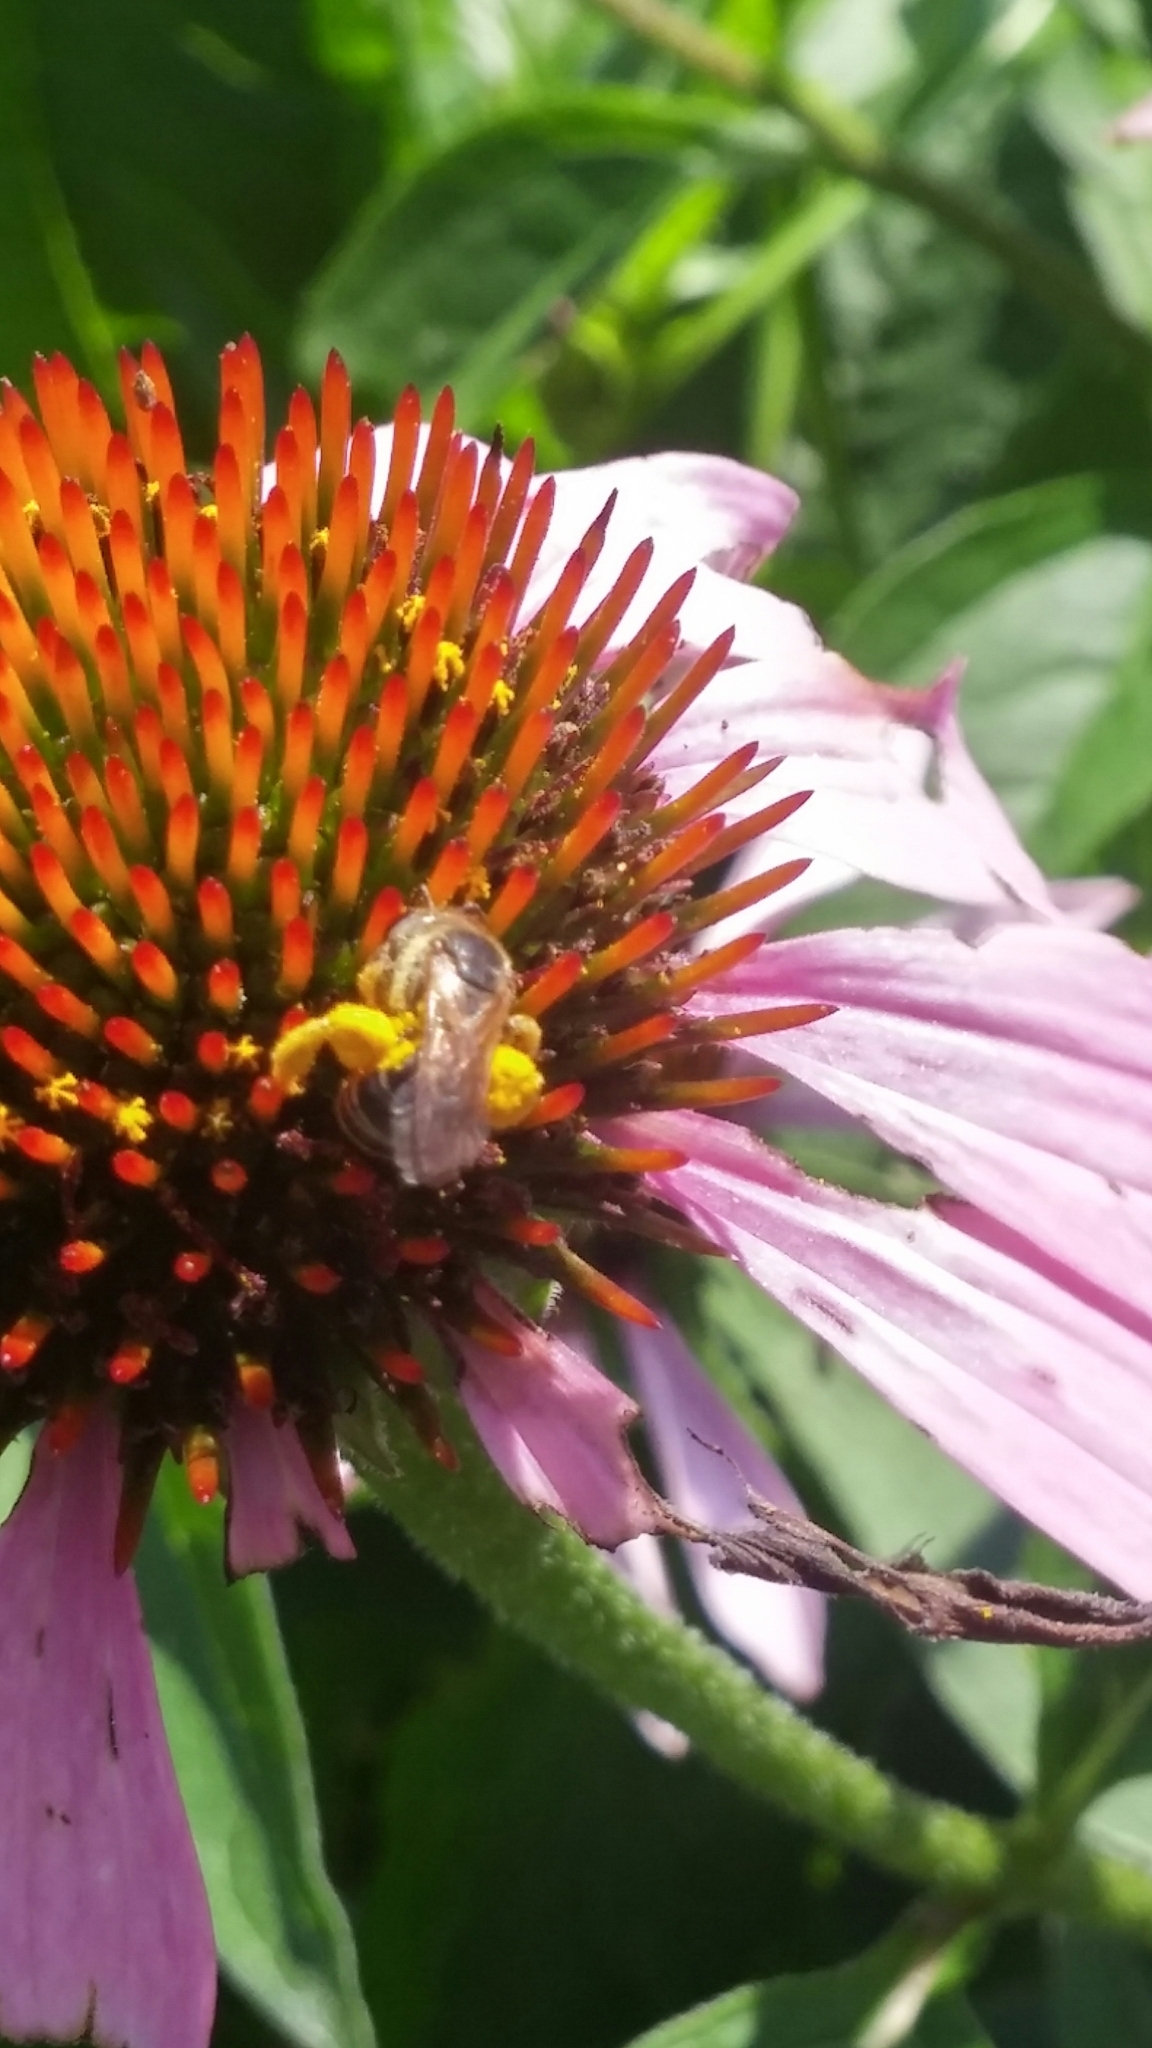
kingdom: Animalia
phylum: Arthropoda
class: Insecta
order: Hymenoptera
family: Halictidae
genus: Halictus
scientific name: Halictus ligatus
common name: Ligated furrow bee
